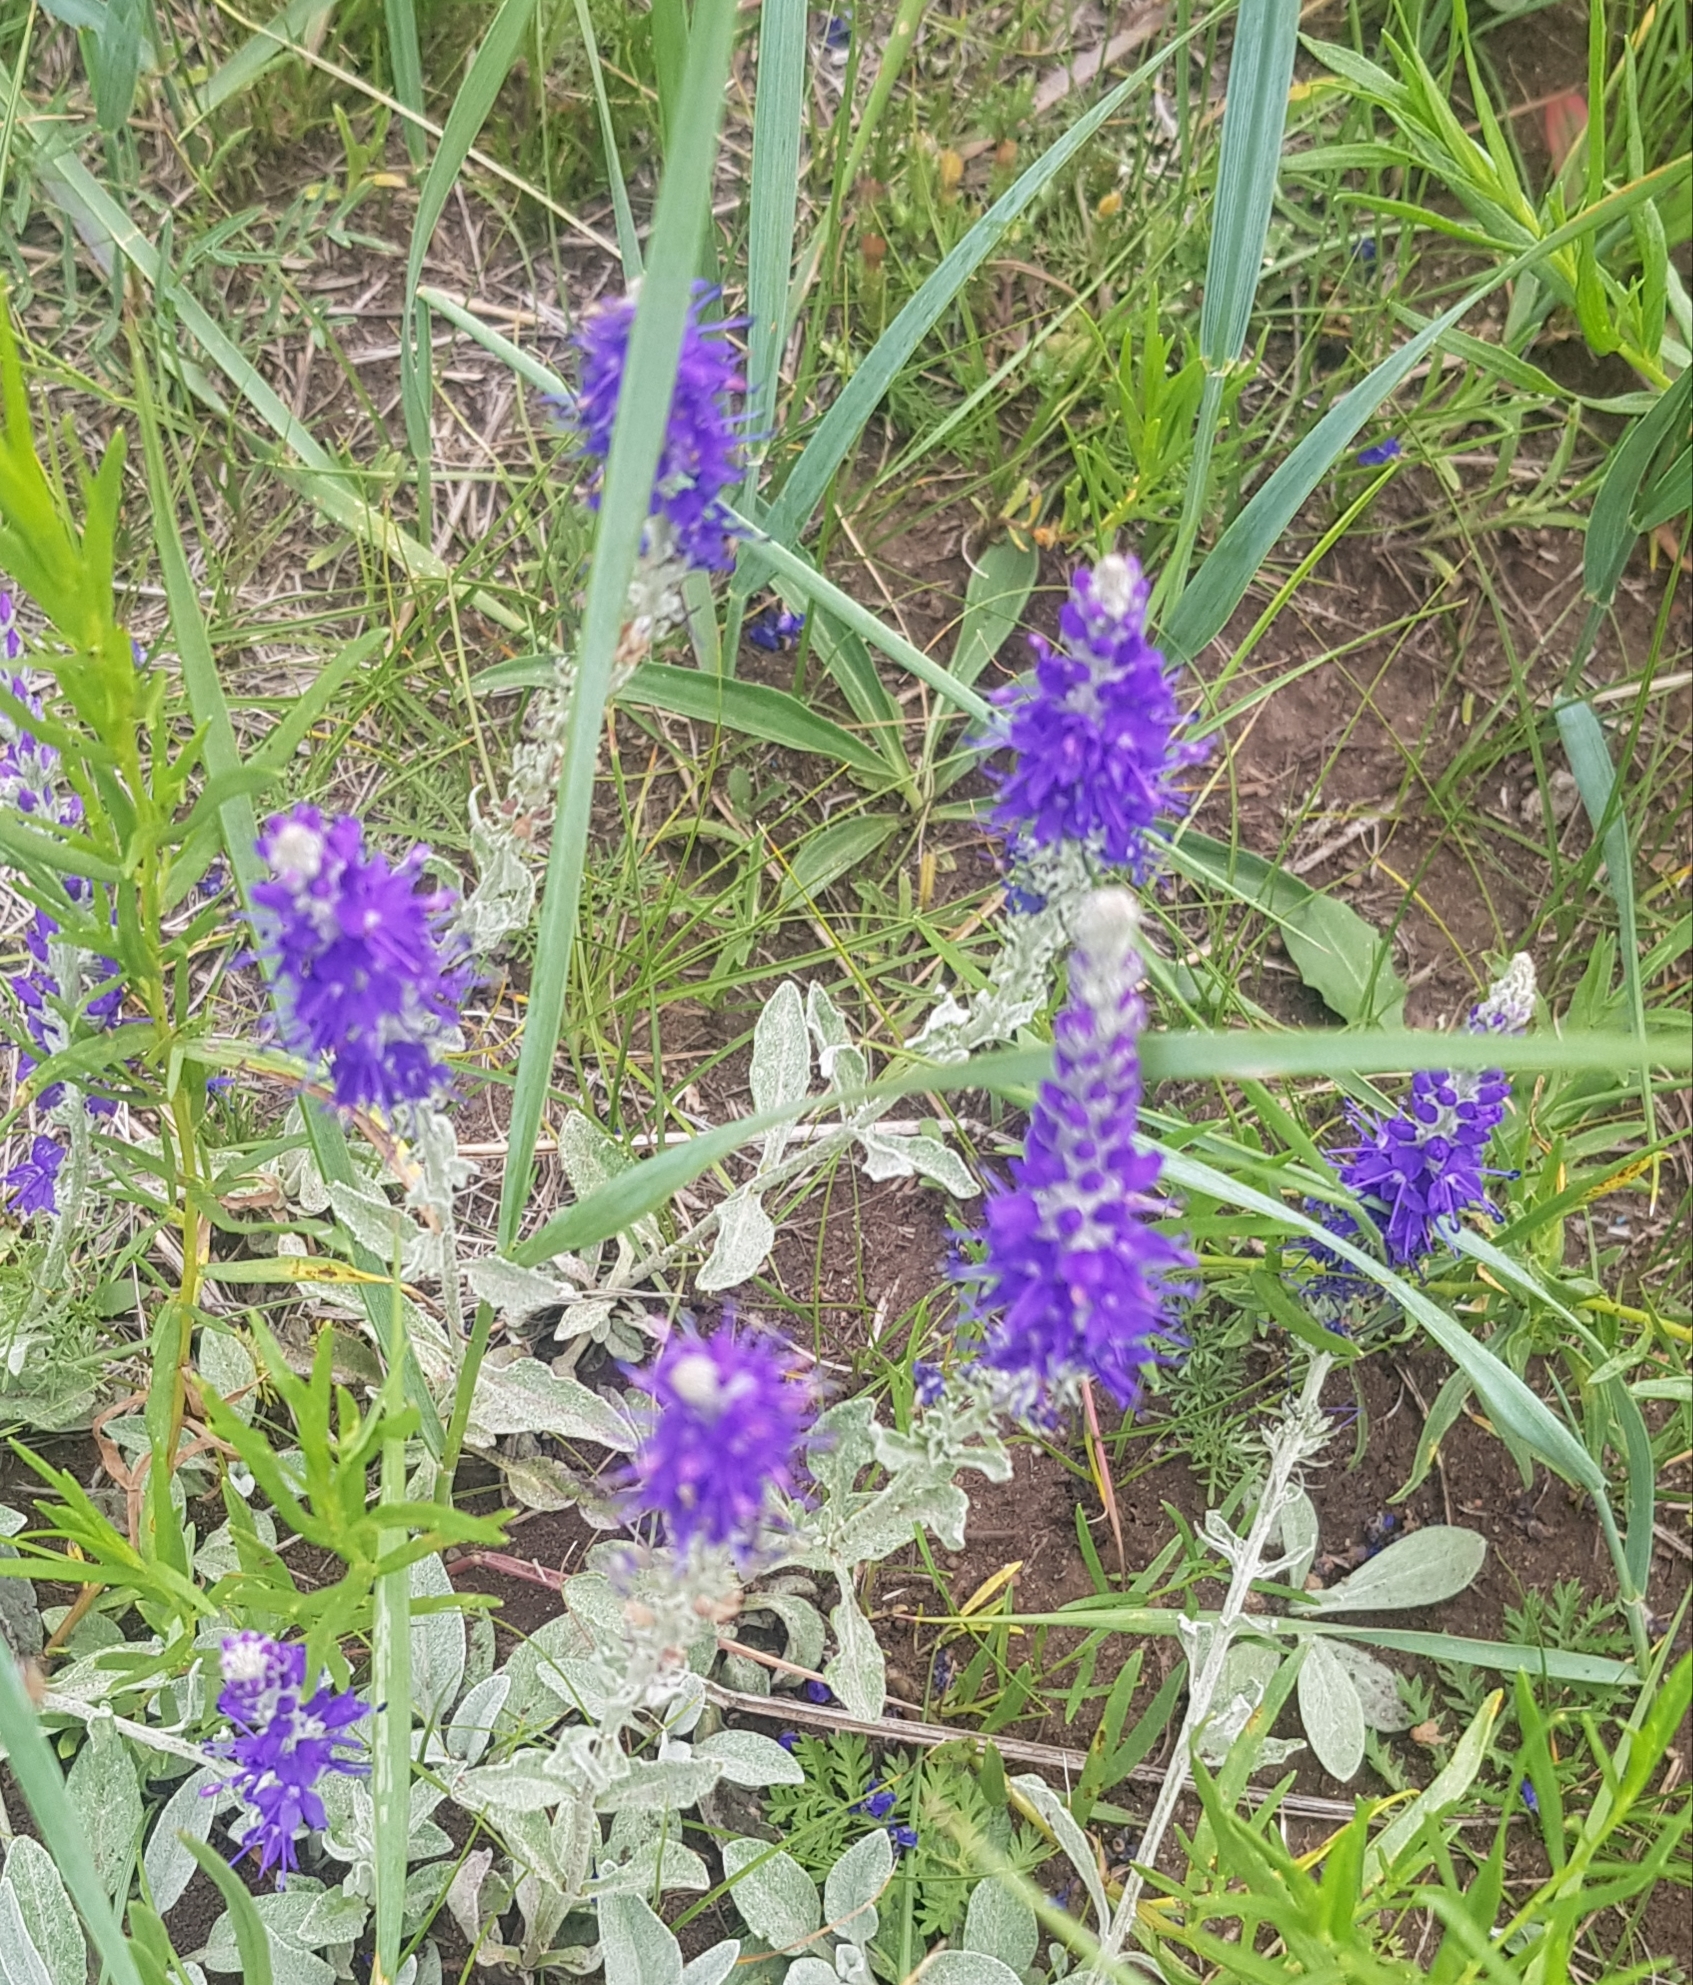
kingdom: Plantae
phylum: Tracheophyta
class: Magnoliopsida
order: Lamiales
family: Plantaginaceae
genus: Veronica
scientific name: Veronica incana
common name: Silver speedwell
